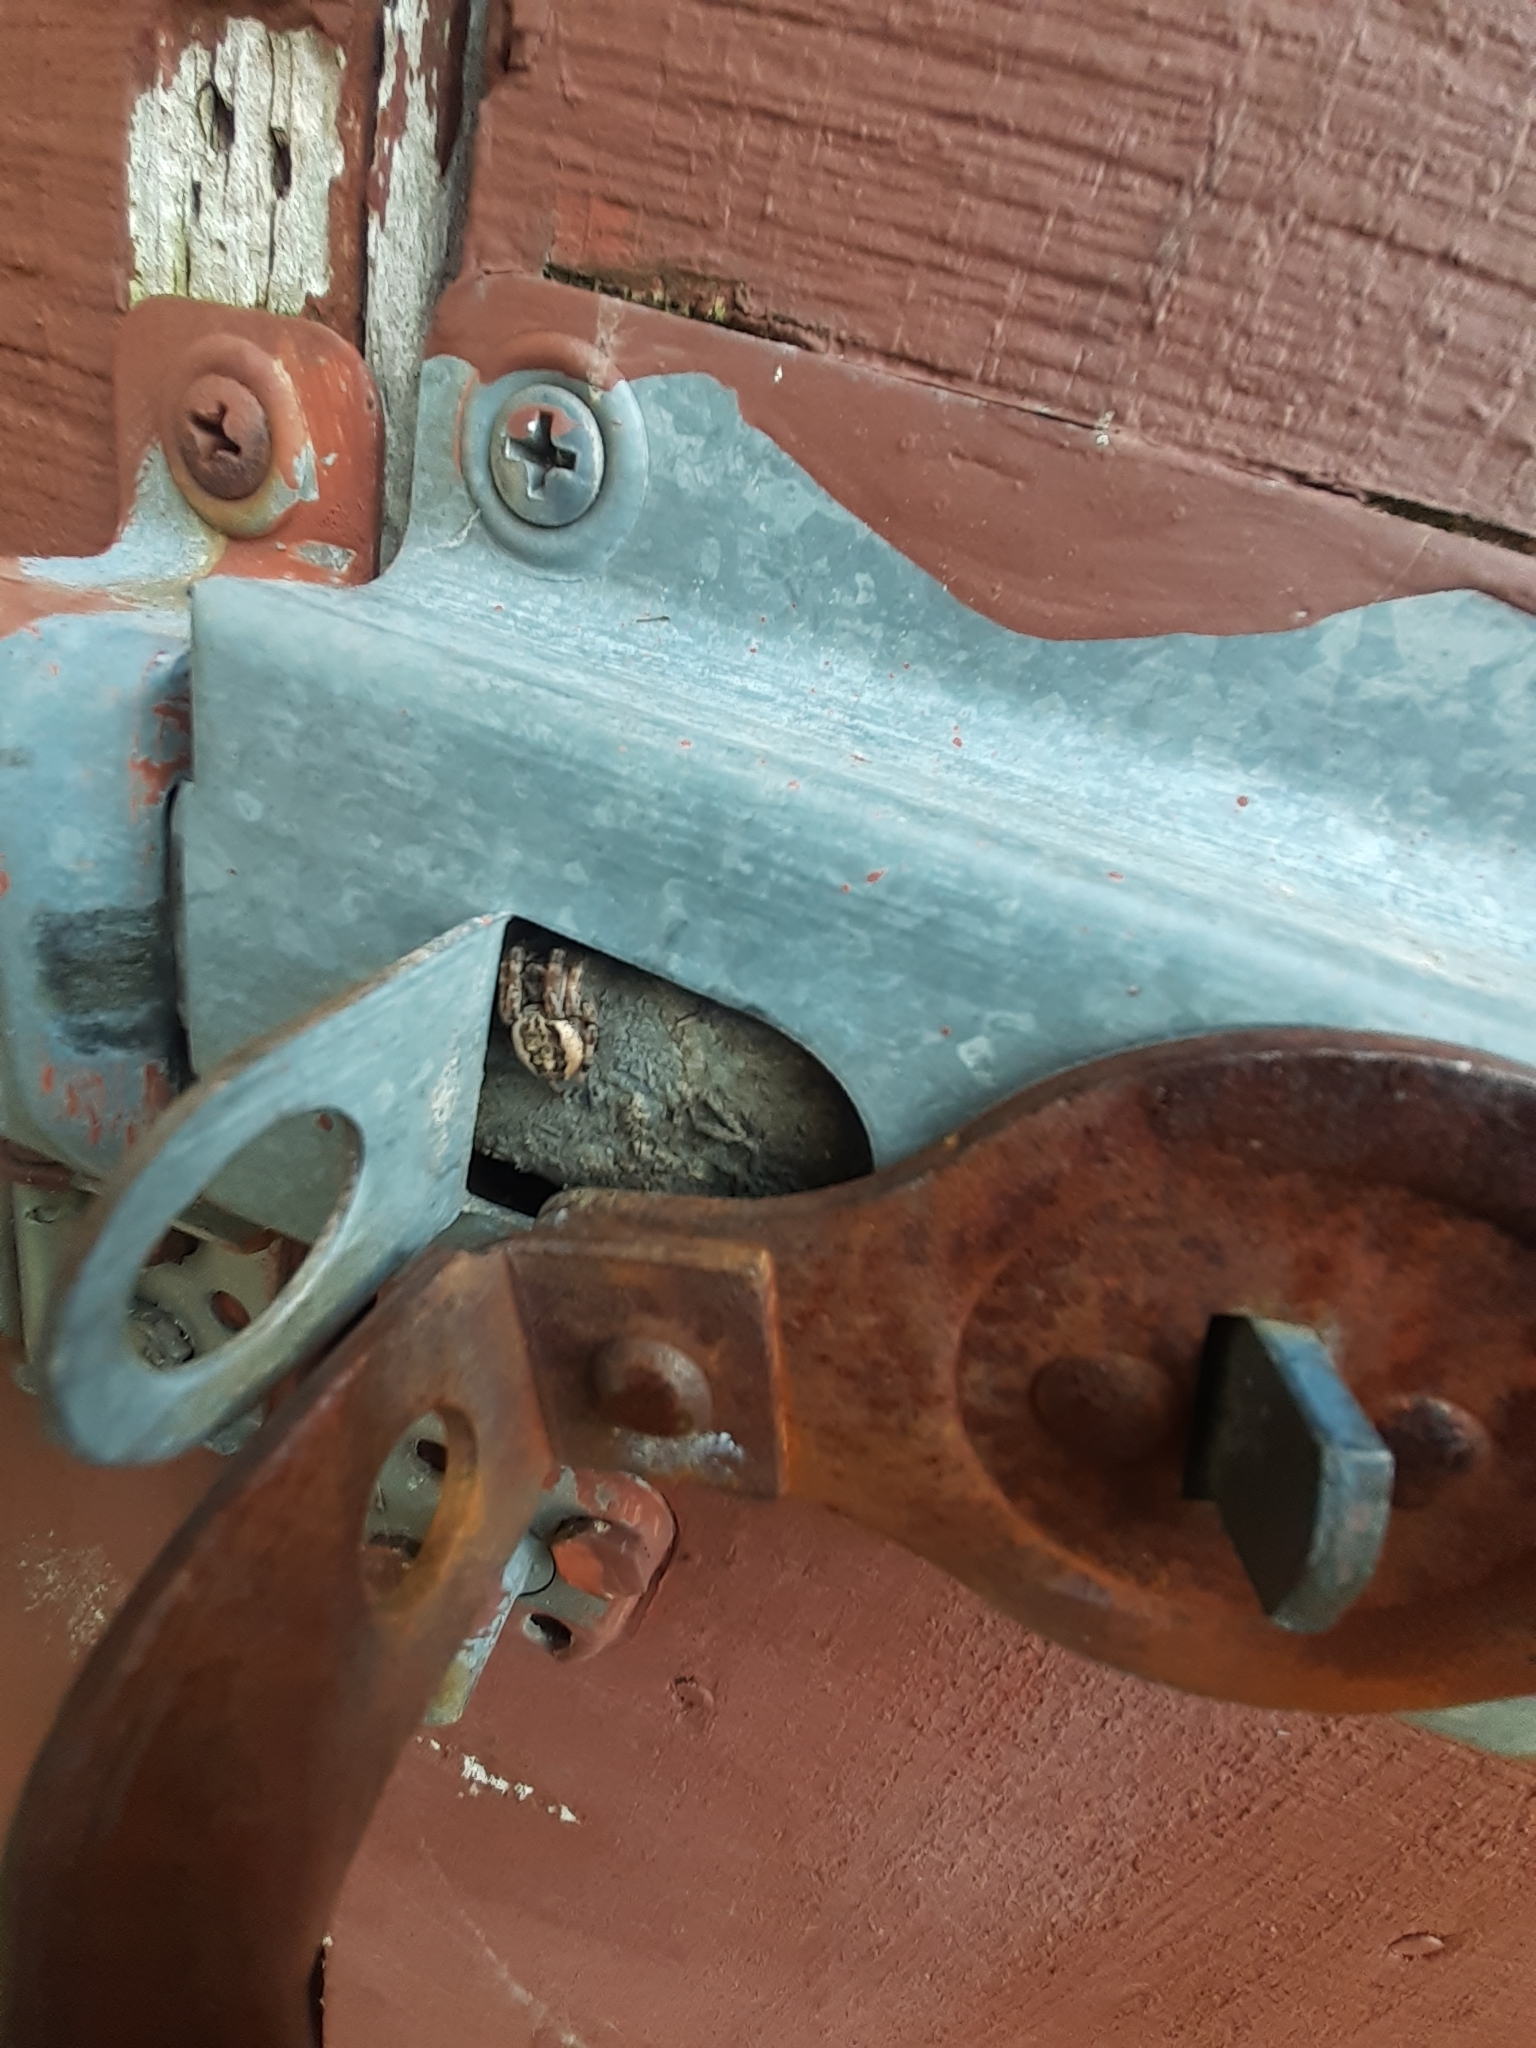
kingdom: Animalia
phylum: Arthropoda
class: Arachnida
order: Araneae
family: Araneidae
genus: Larinioides
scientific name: Larinioides cornutus
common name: Furrow orbweaver
